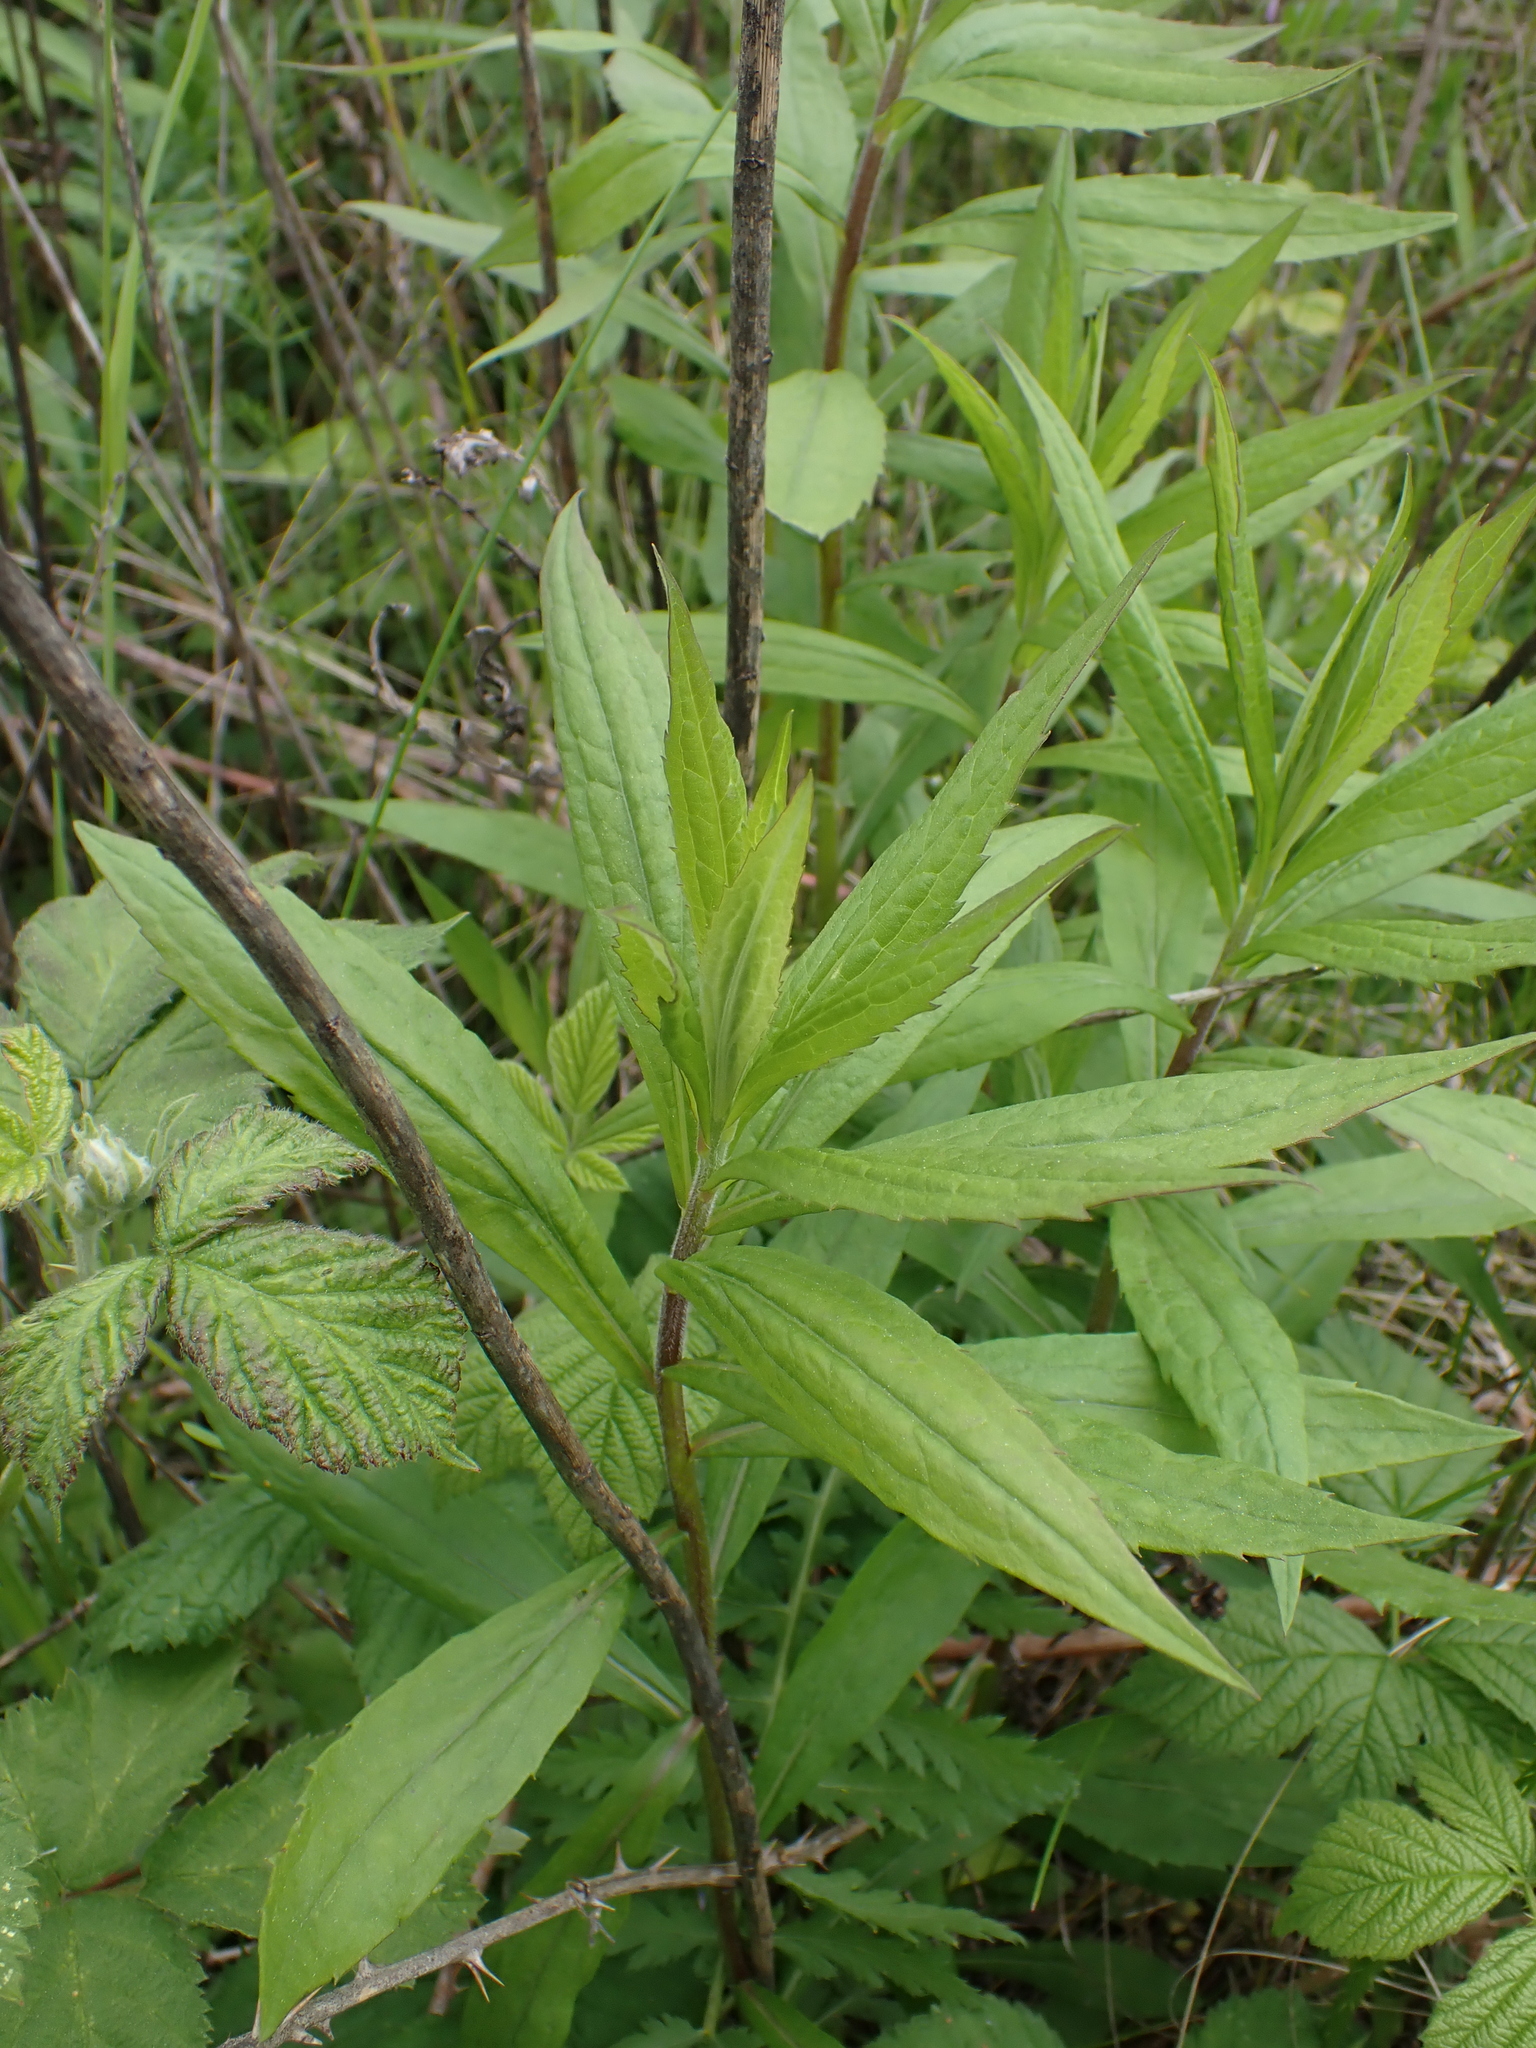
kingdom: Plantae
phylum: Tracheophyta
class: Magnoliopsida
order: Asterales
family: Asteraceae
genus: Solidago
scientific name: Solidago canadensis
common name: Canada goldenrod
